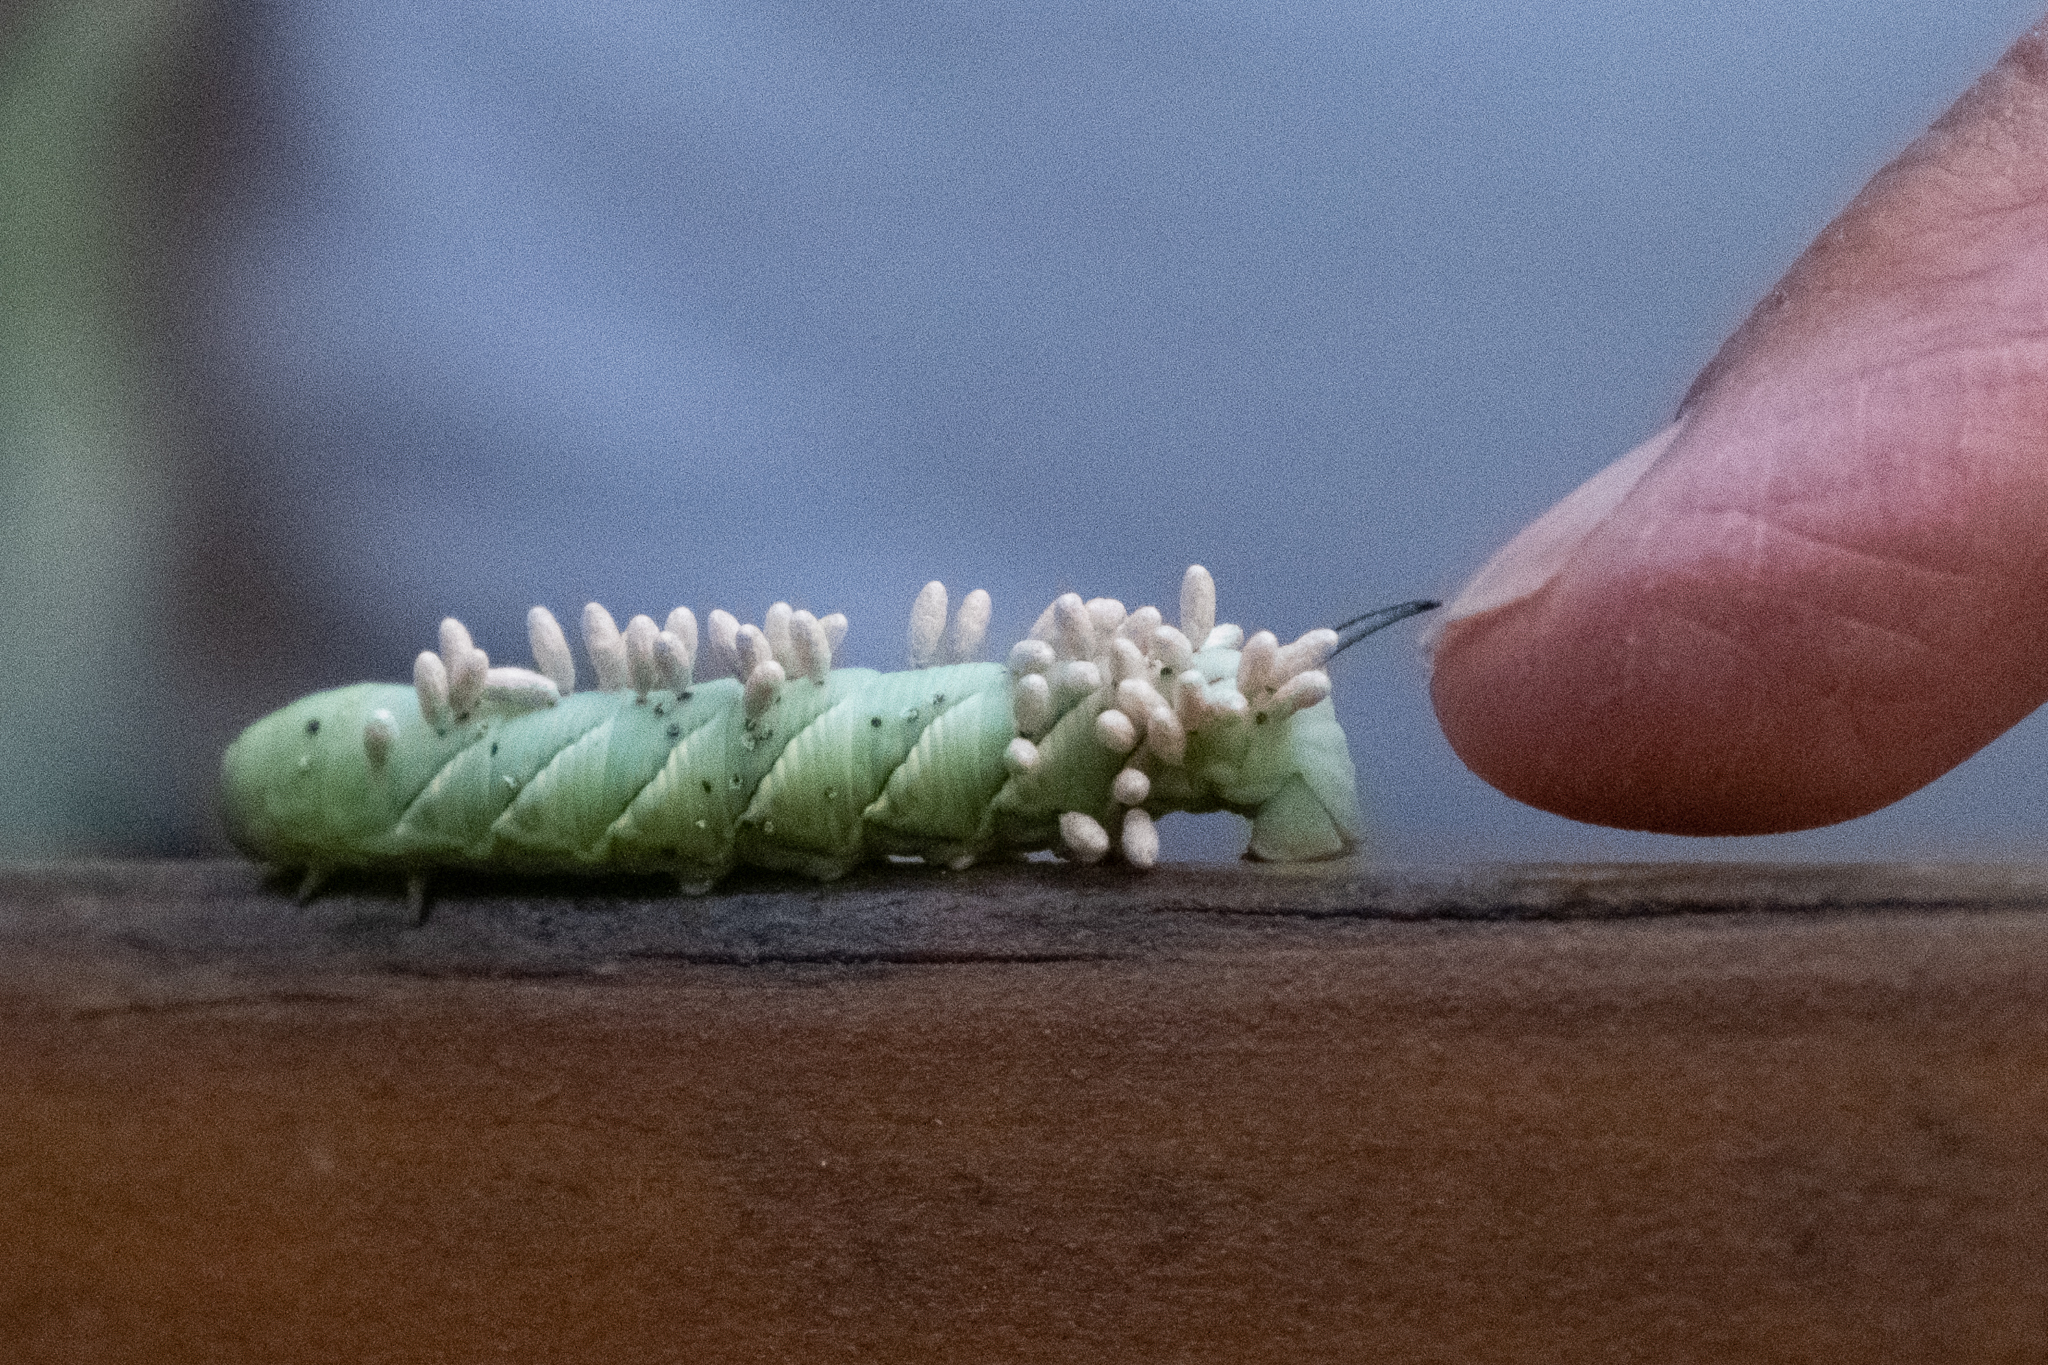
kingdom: Animalia
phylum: Arthropoda
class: Insecta
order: Lepidoptera
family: Sphingidae
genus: Sphinx
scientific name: Sphinx vashti
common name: Snowberry sphinx
